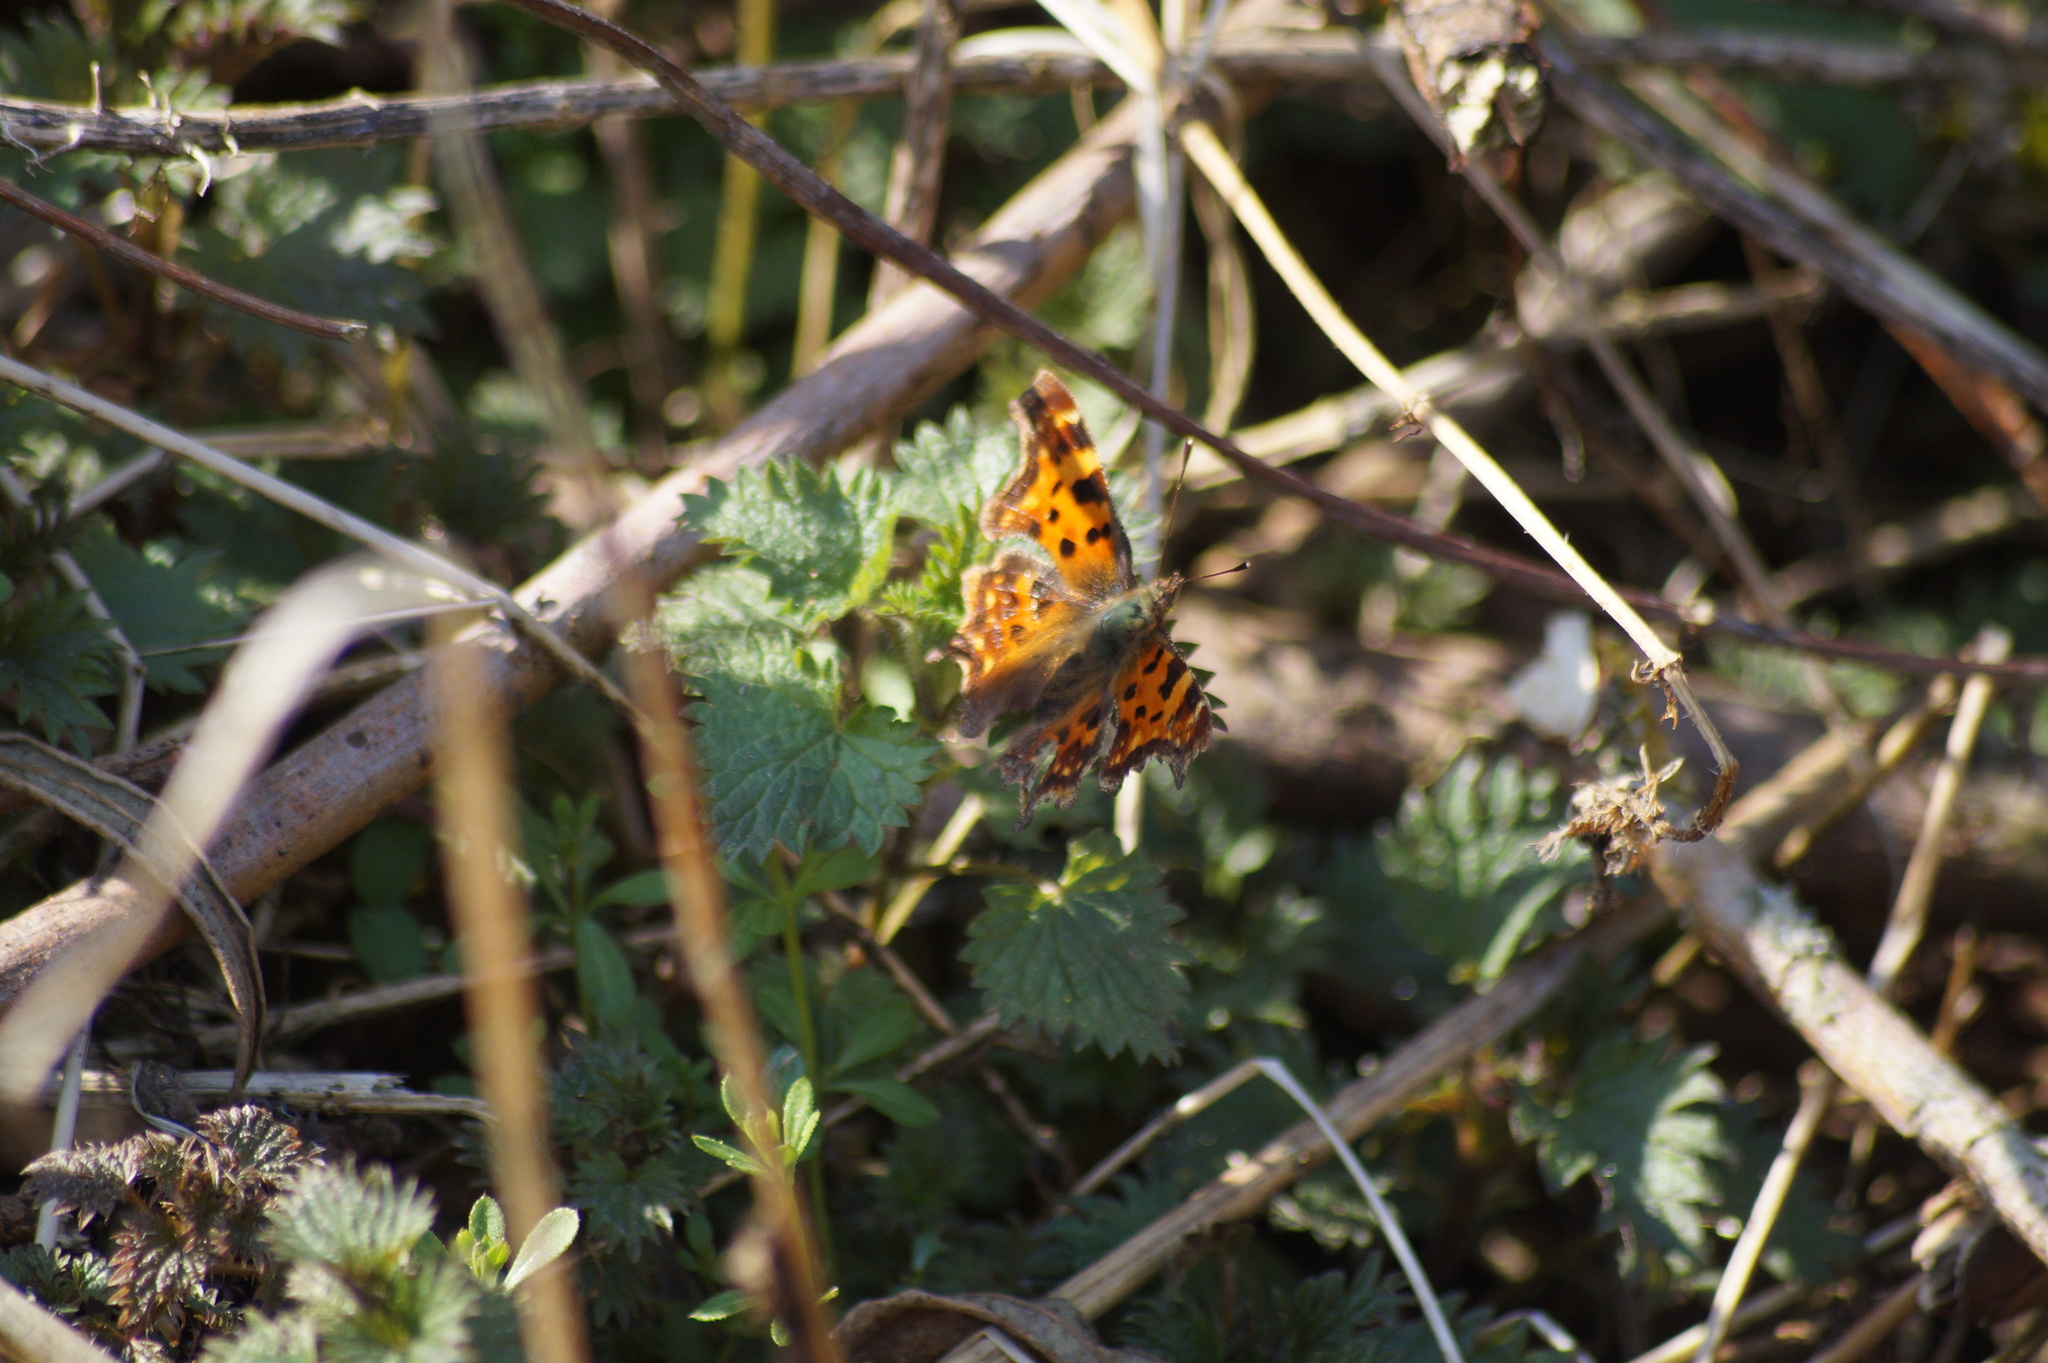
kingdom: Animalia
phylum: Arthropoda
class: Insecta
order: Lepidoptera
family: Nymphalidae
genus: Polygonia
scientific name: Polygonia c-album
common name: Comma
